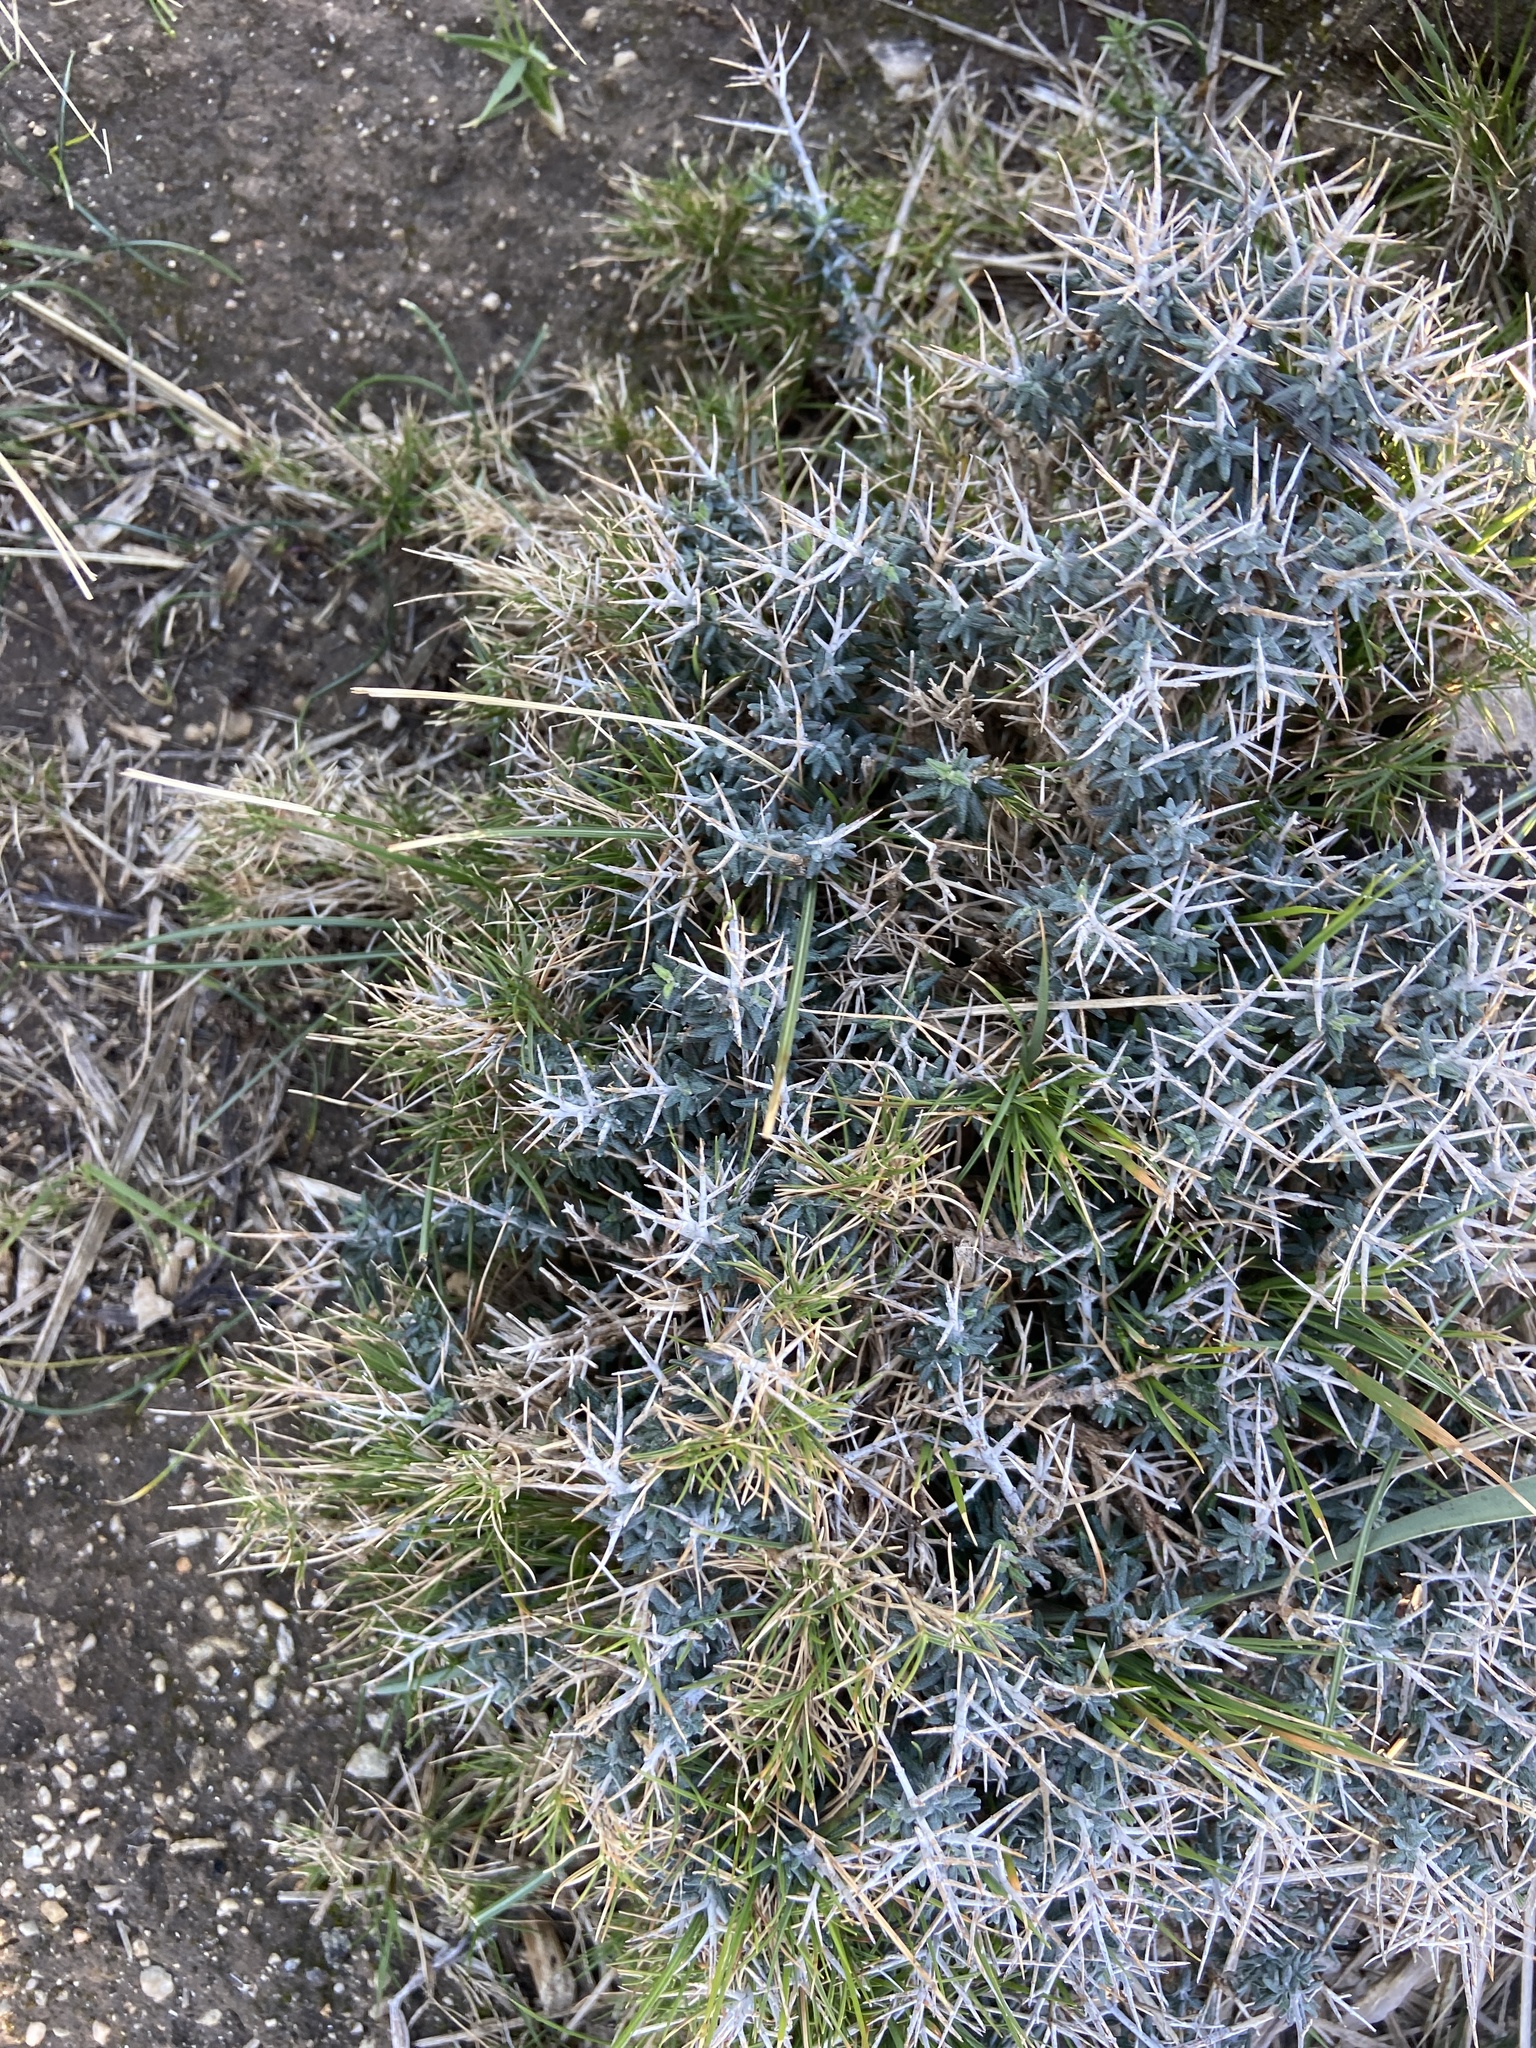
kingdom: Plantae
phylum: Tracheophyta
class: Magnoliopsida
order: Lamiales
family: Lamiaceae
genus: Teucrium
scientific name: Teucrium balearicum
